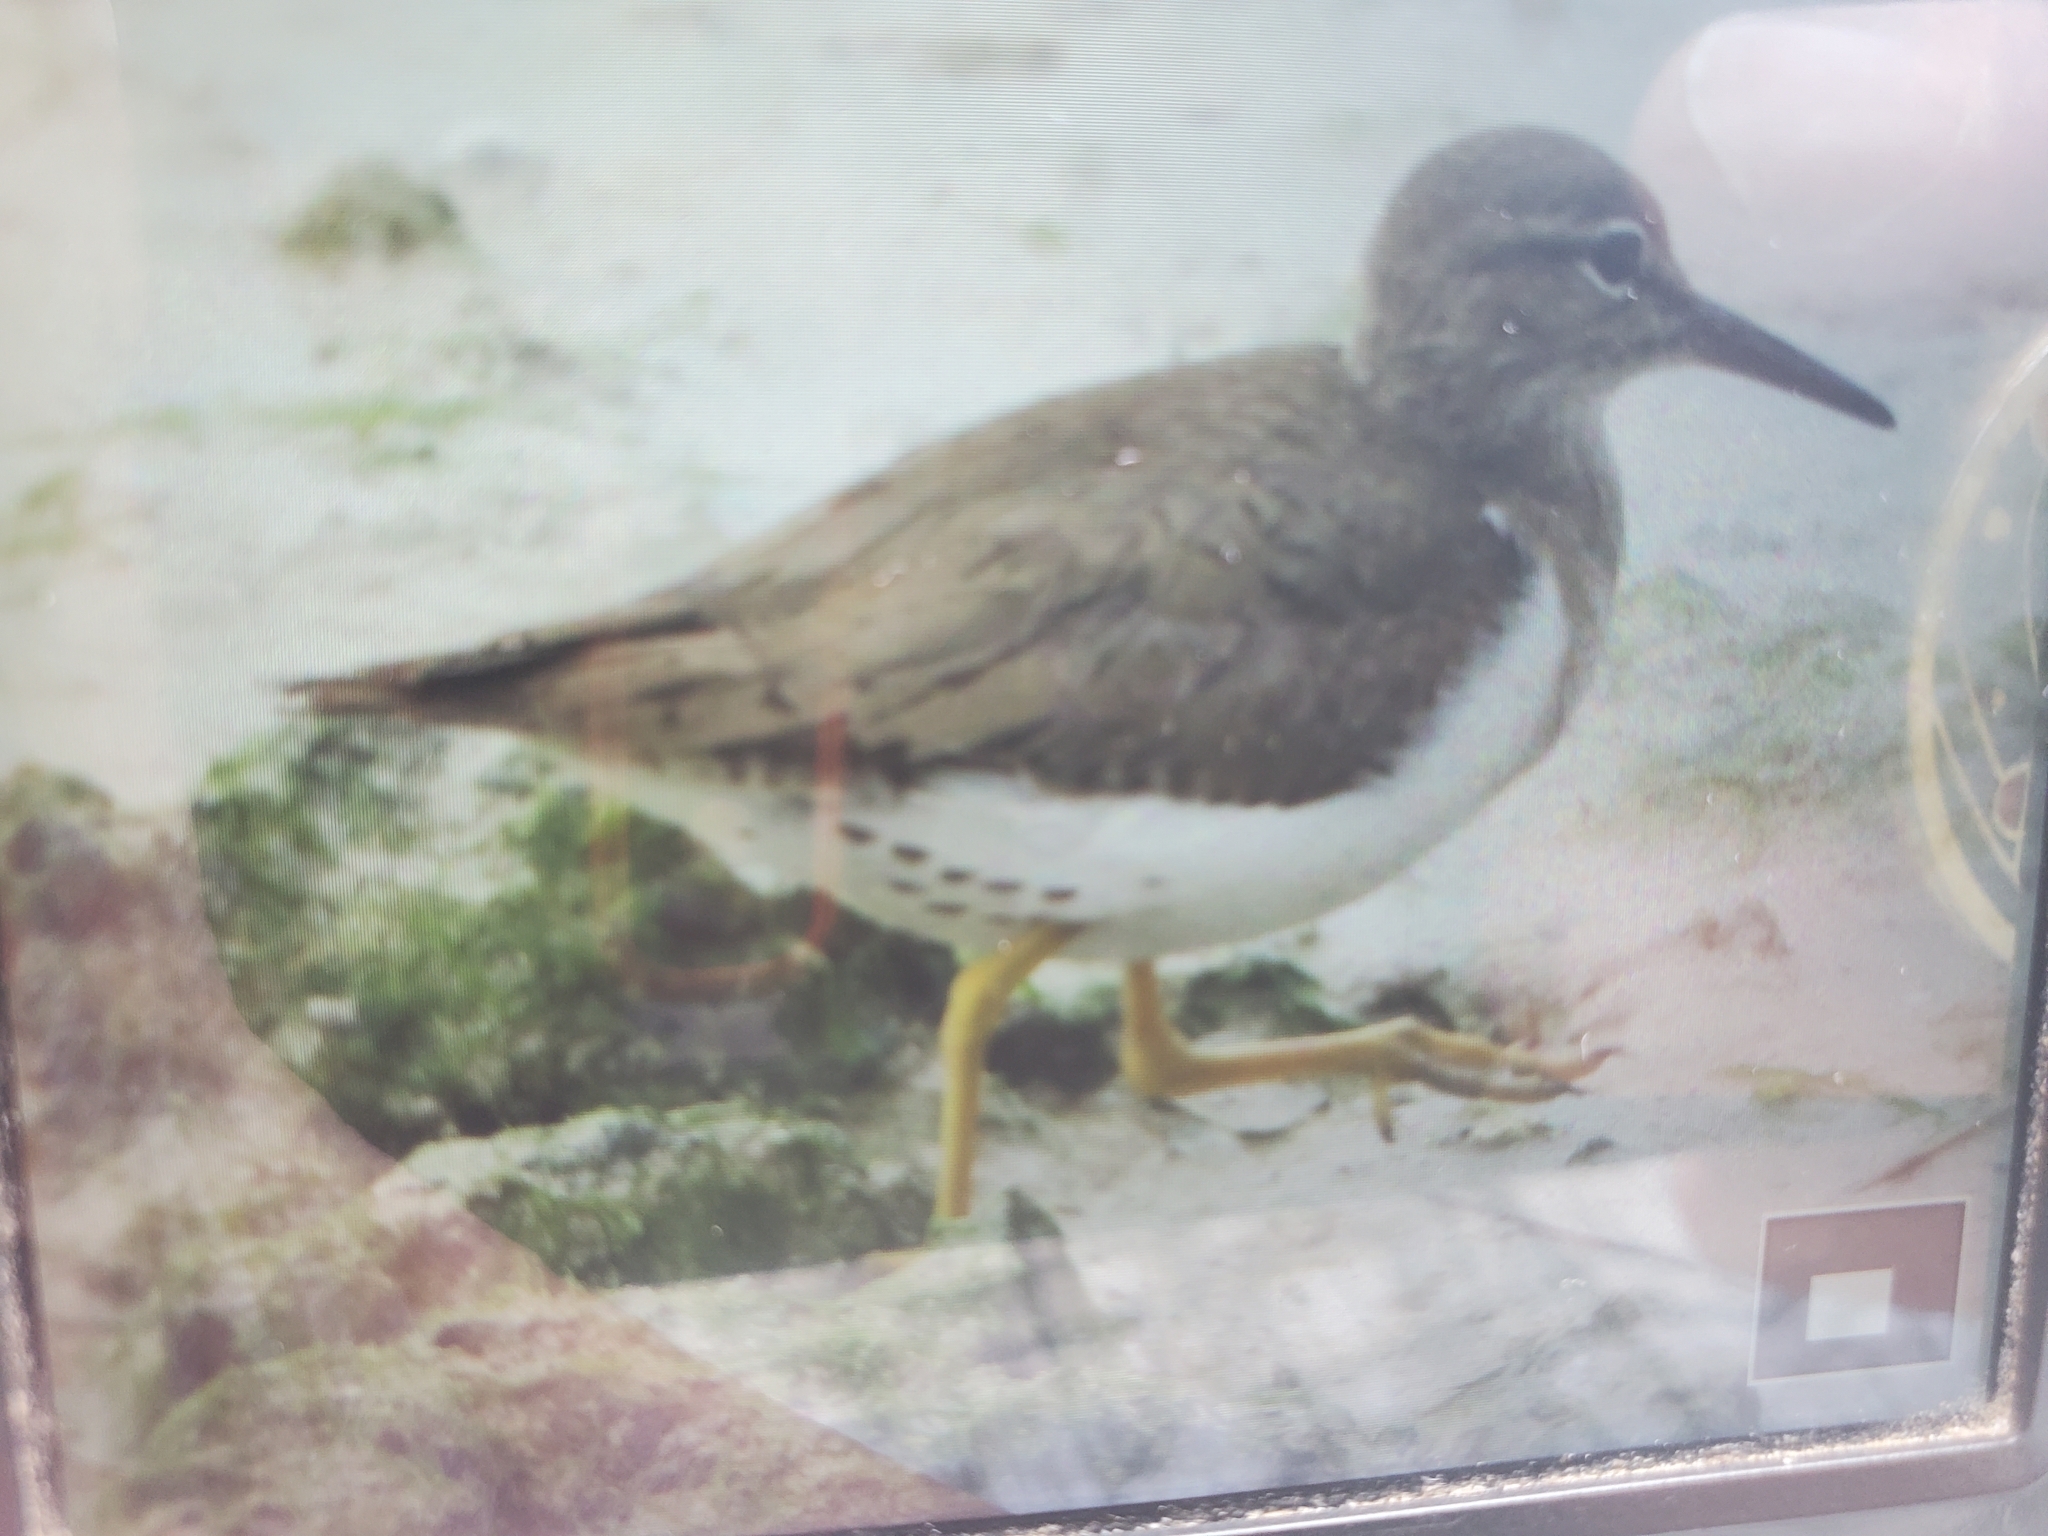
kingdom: Animalia
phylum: Chordata
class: Aves
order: Charadriiformes
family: Scolopacidae
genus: Actitis
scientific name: Actitis macularius
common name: Spotted sandpiper
